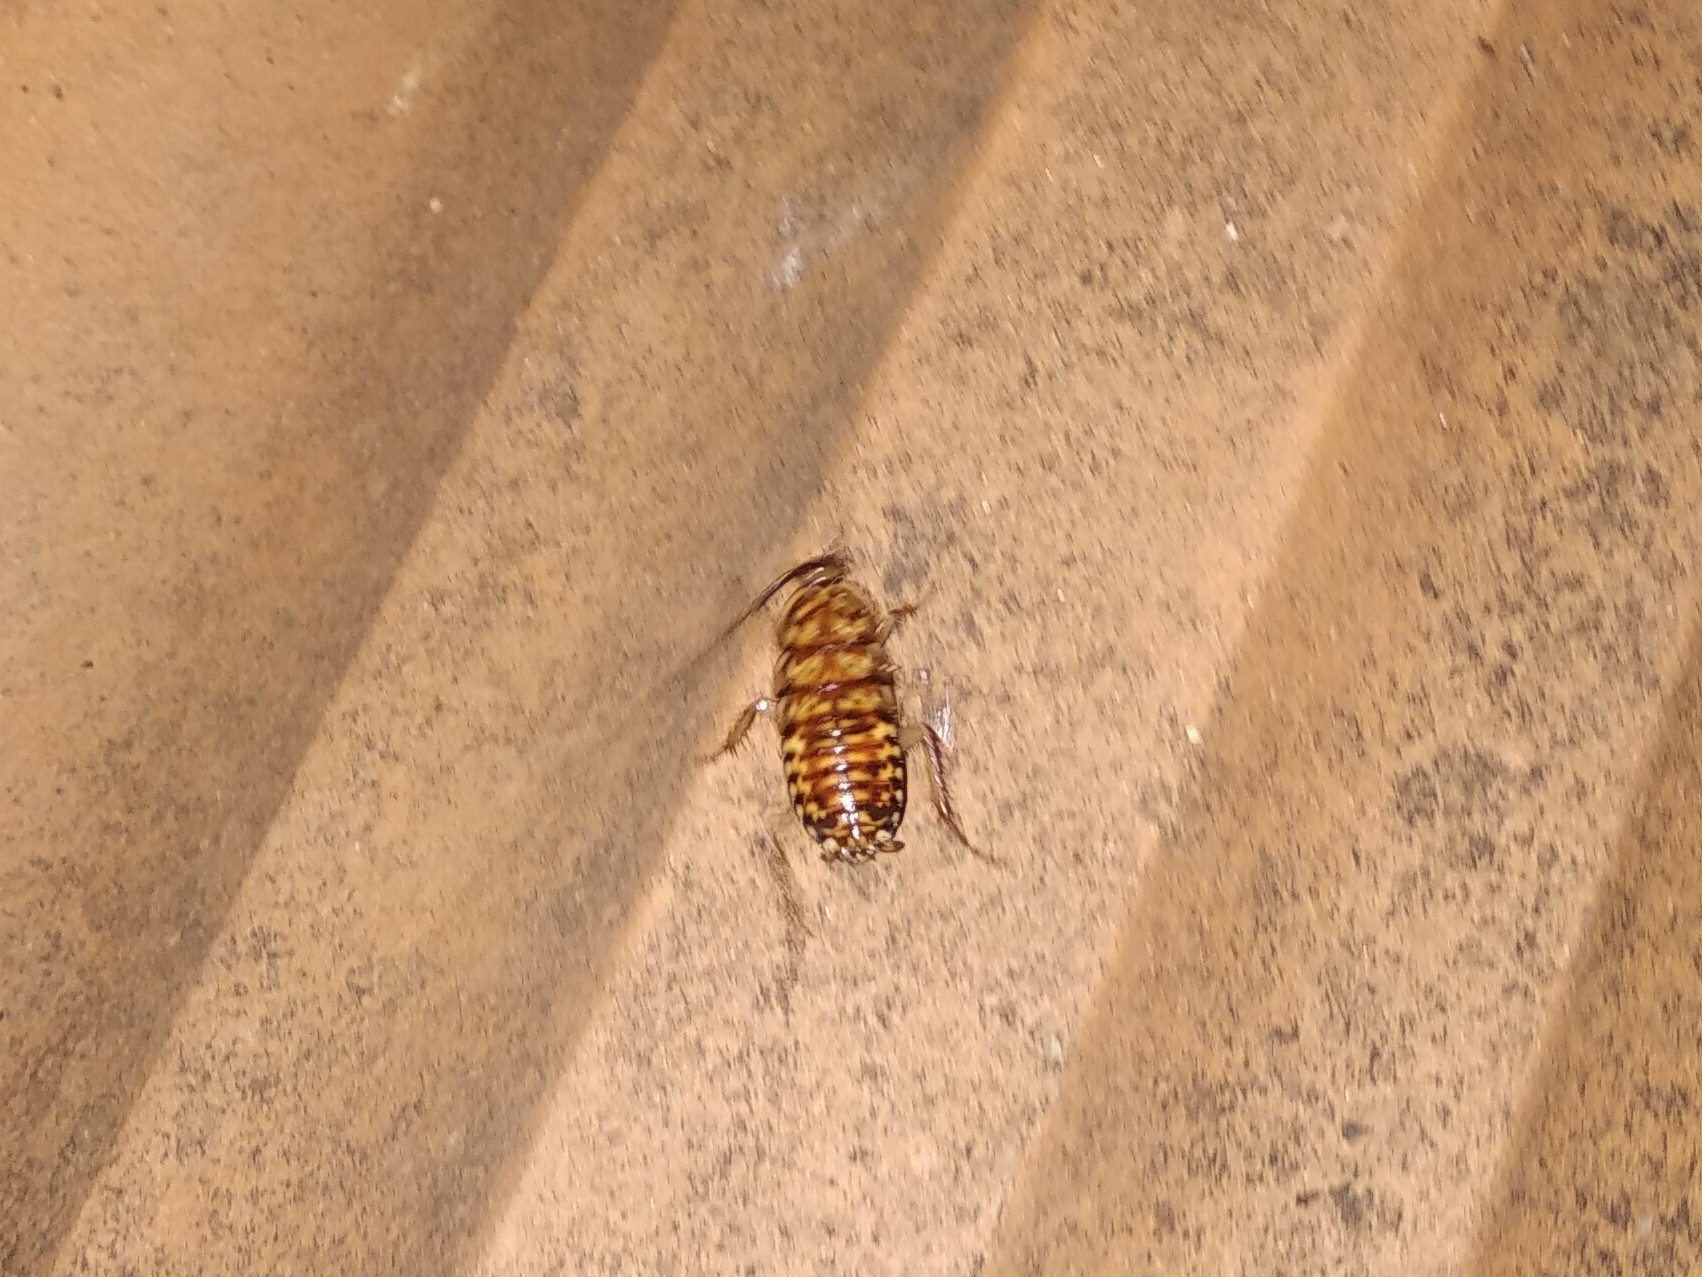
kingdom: Animalia
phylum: Arthropoda
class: Insecta
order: Blattodea
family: Blattidae
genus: Neostylopyga
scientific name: Neostylopyga rhombifolia
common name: Harlequin cockroach
